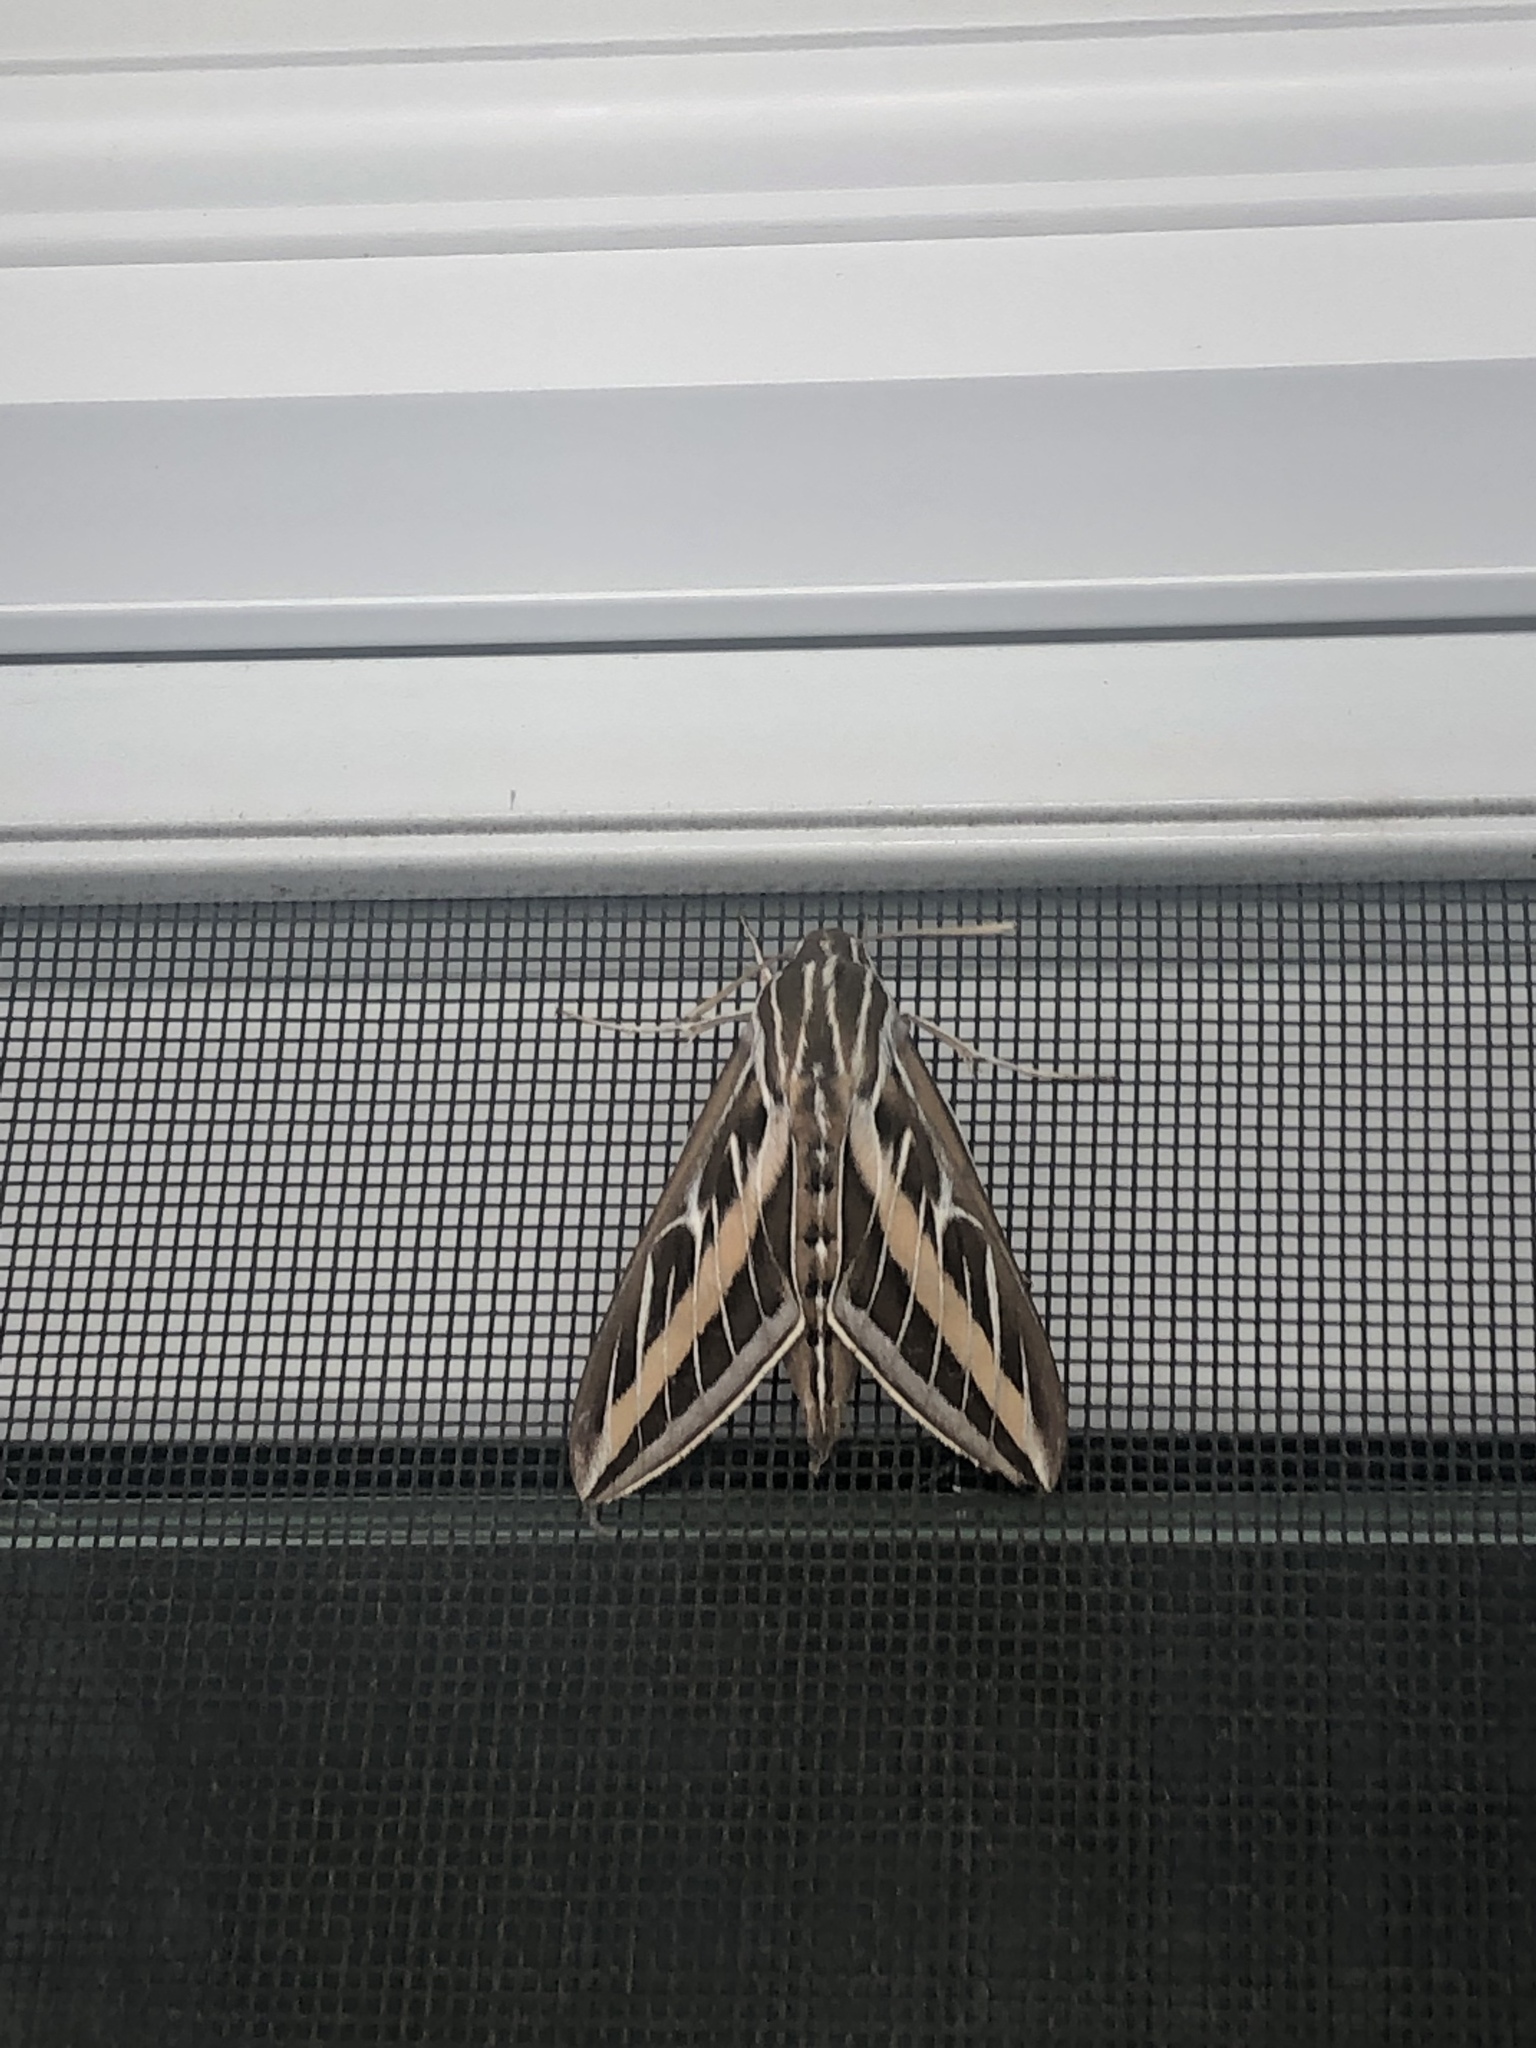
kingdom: Animalia
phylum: Arthropoda
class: Insecta
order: Lepidoptera
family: Sphingidae
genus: Hyles
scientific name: Hyles lineata
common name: White-lined sphinx
